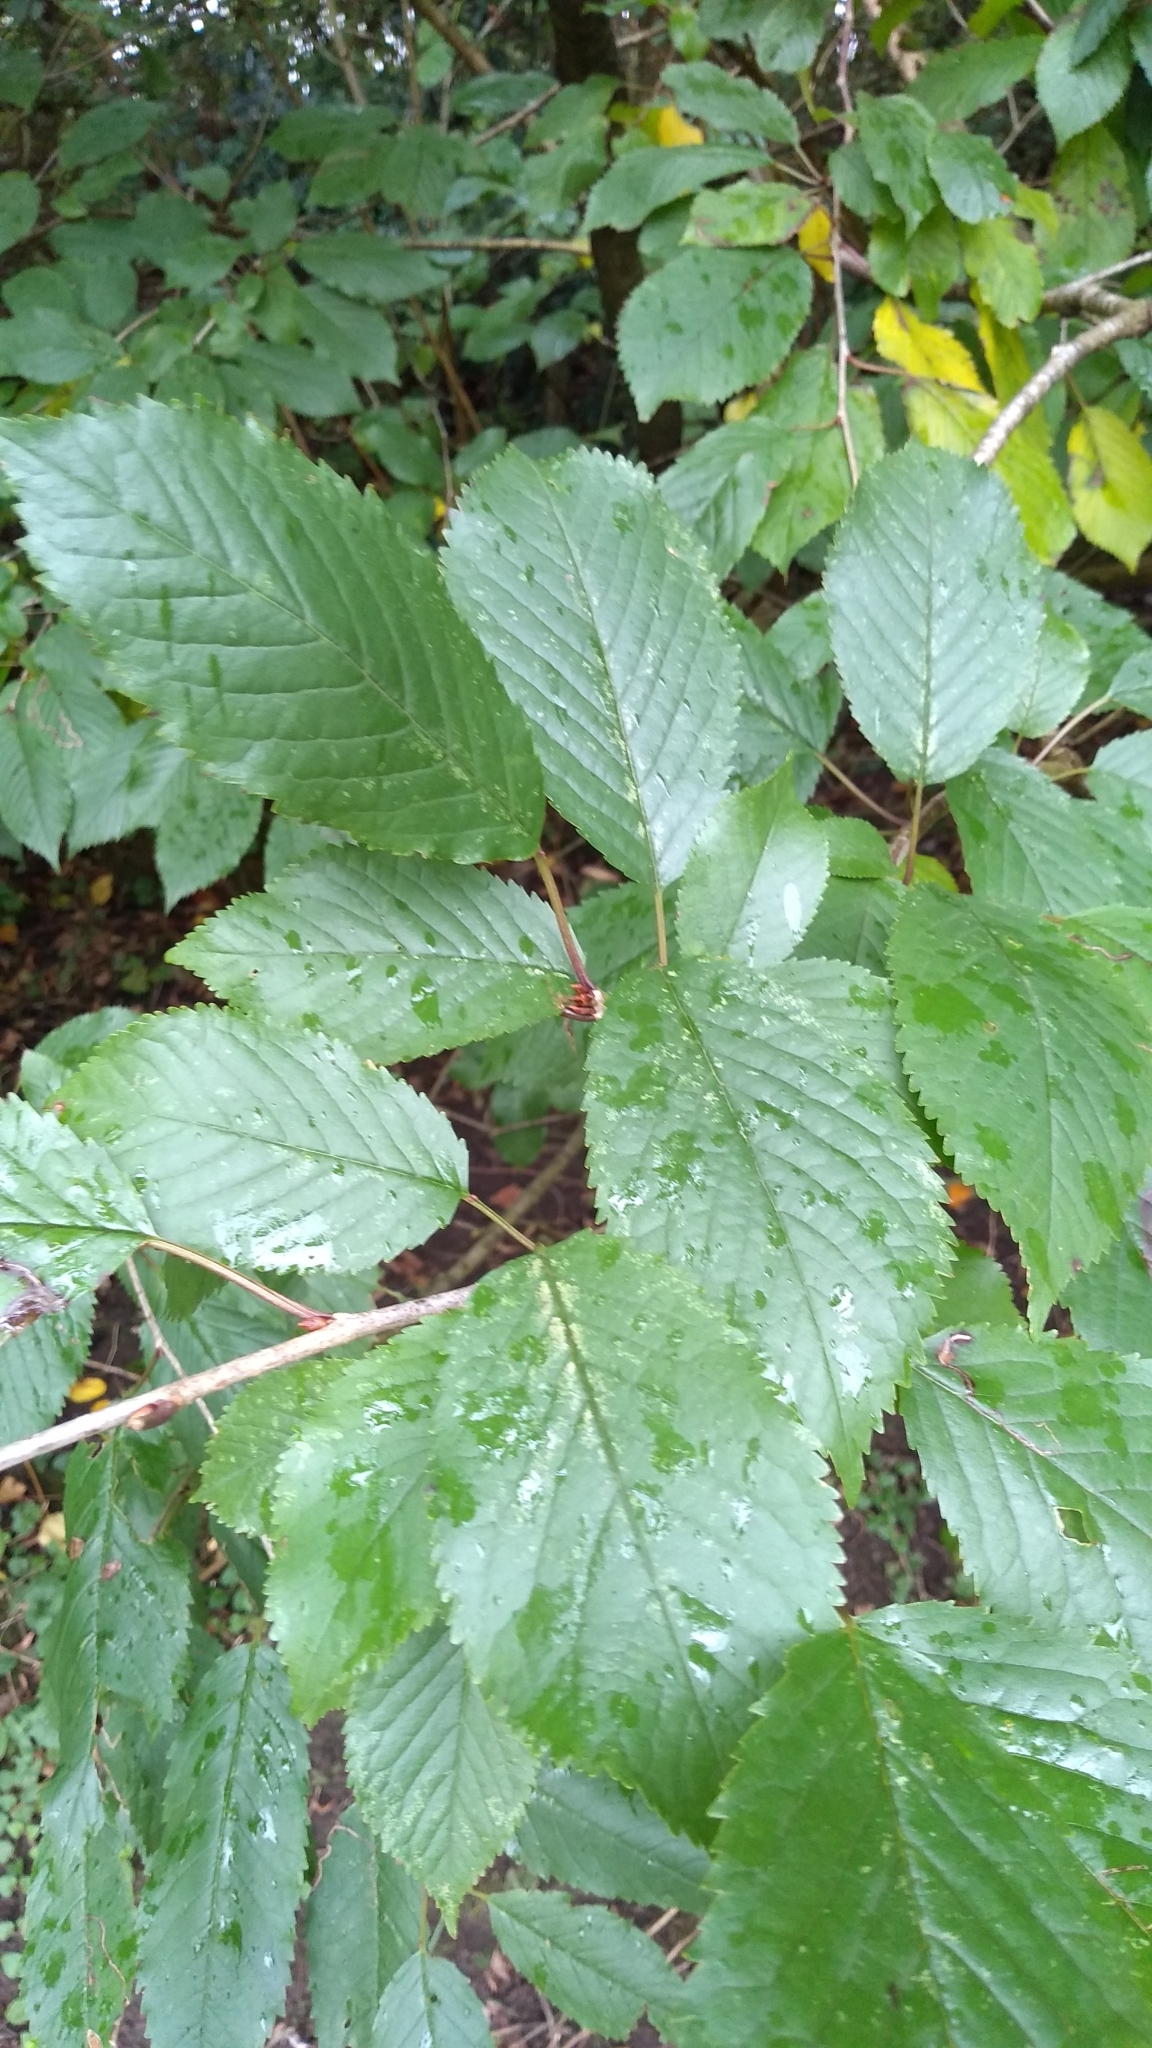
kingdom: Plantae
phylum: Tracheophyta
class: Magnoliopsida
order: Rosales
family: Rosaceae
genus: Prunus
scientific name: Prunus avium
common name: Sweet cherry
